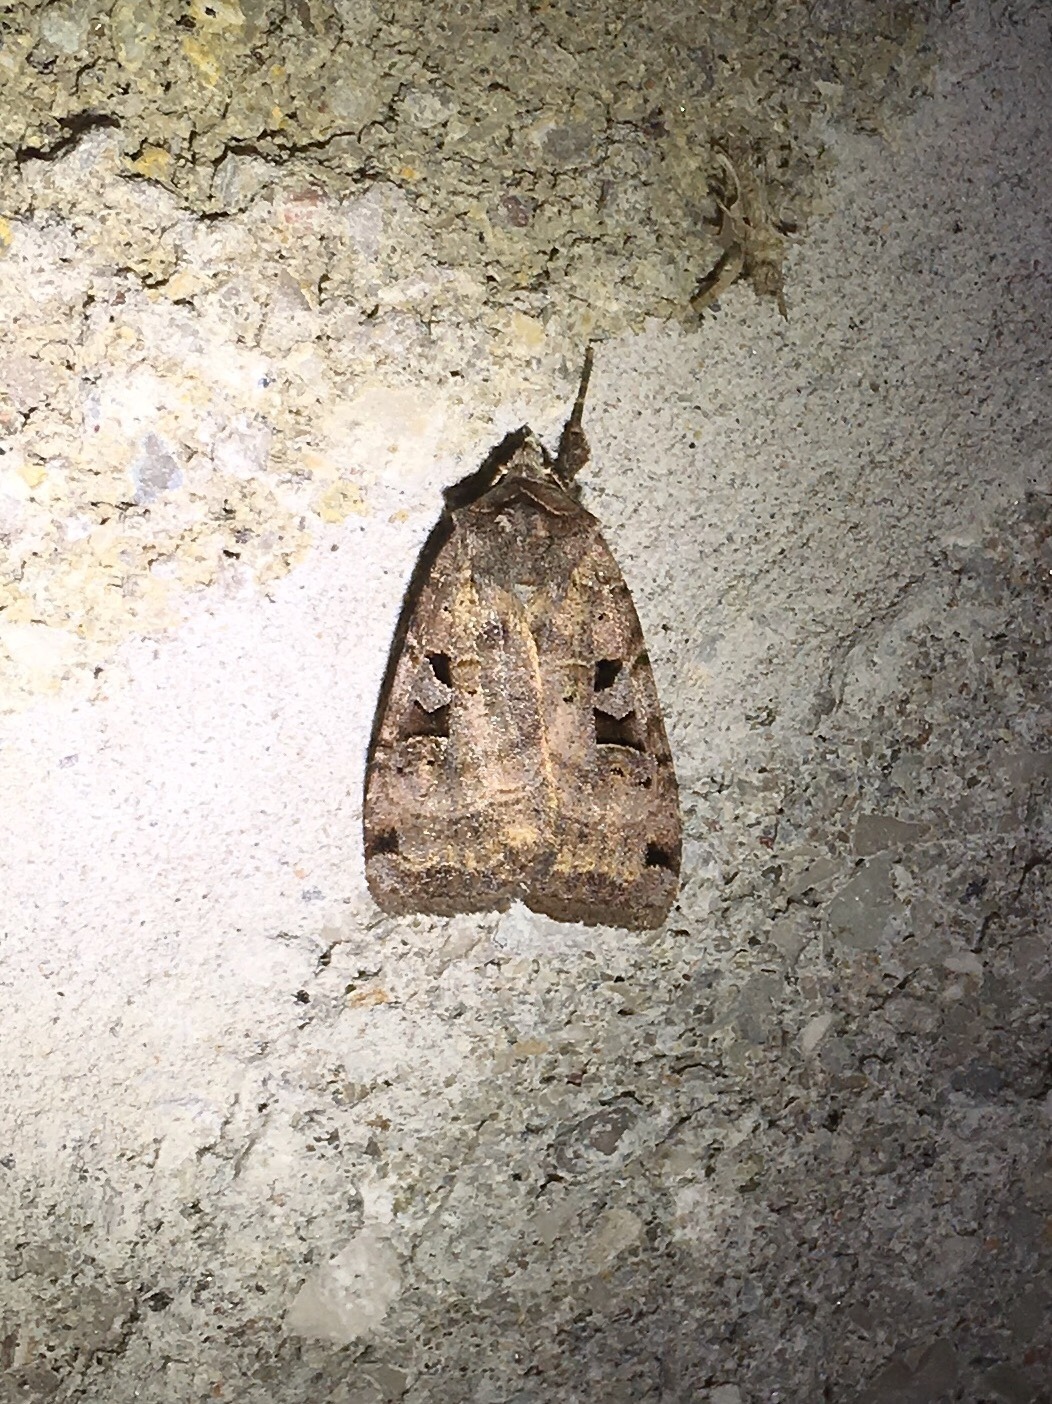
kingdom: Animalia
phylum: Arthropoda
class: Insecta
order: Lepidoptera
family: Noctuidae
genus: Xestia
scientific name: Xestia normaniana
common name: Norman's dart moth
